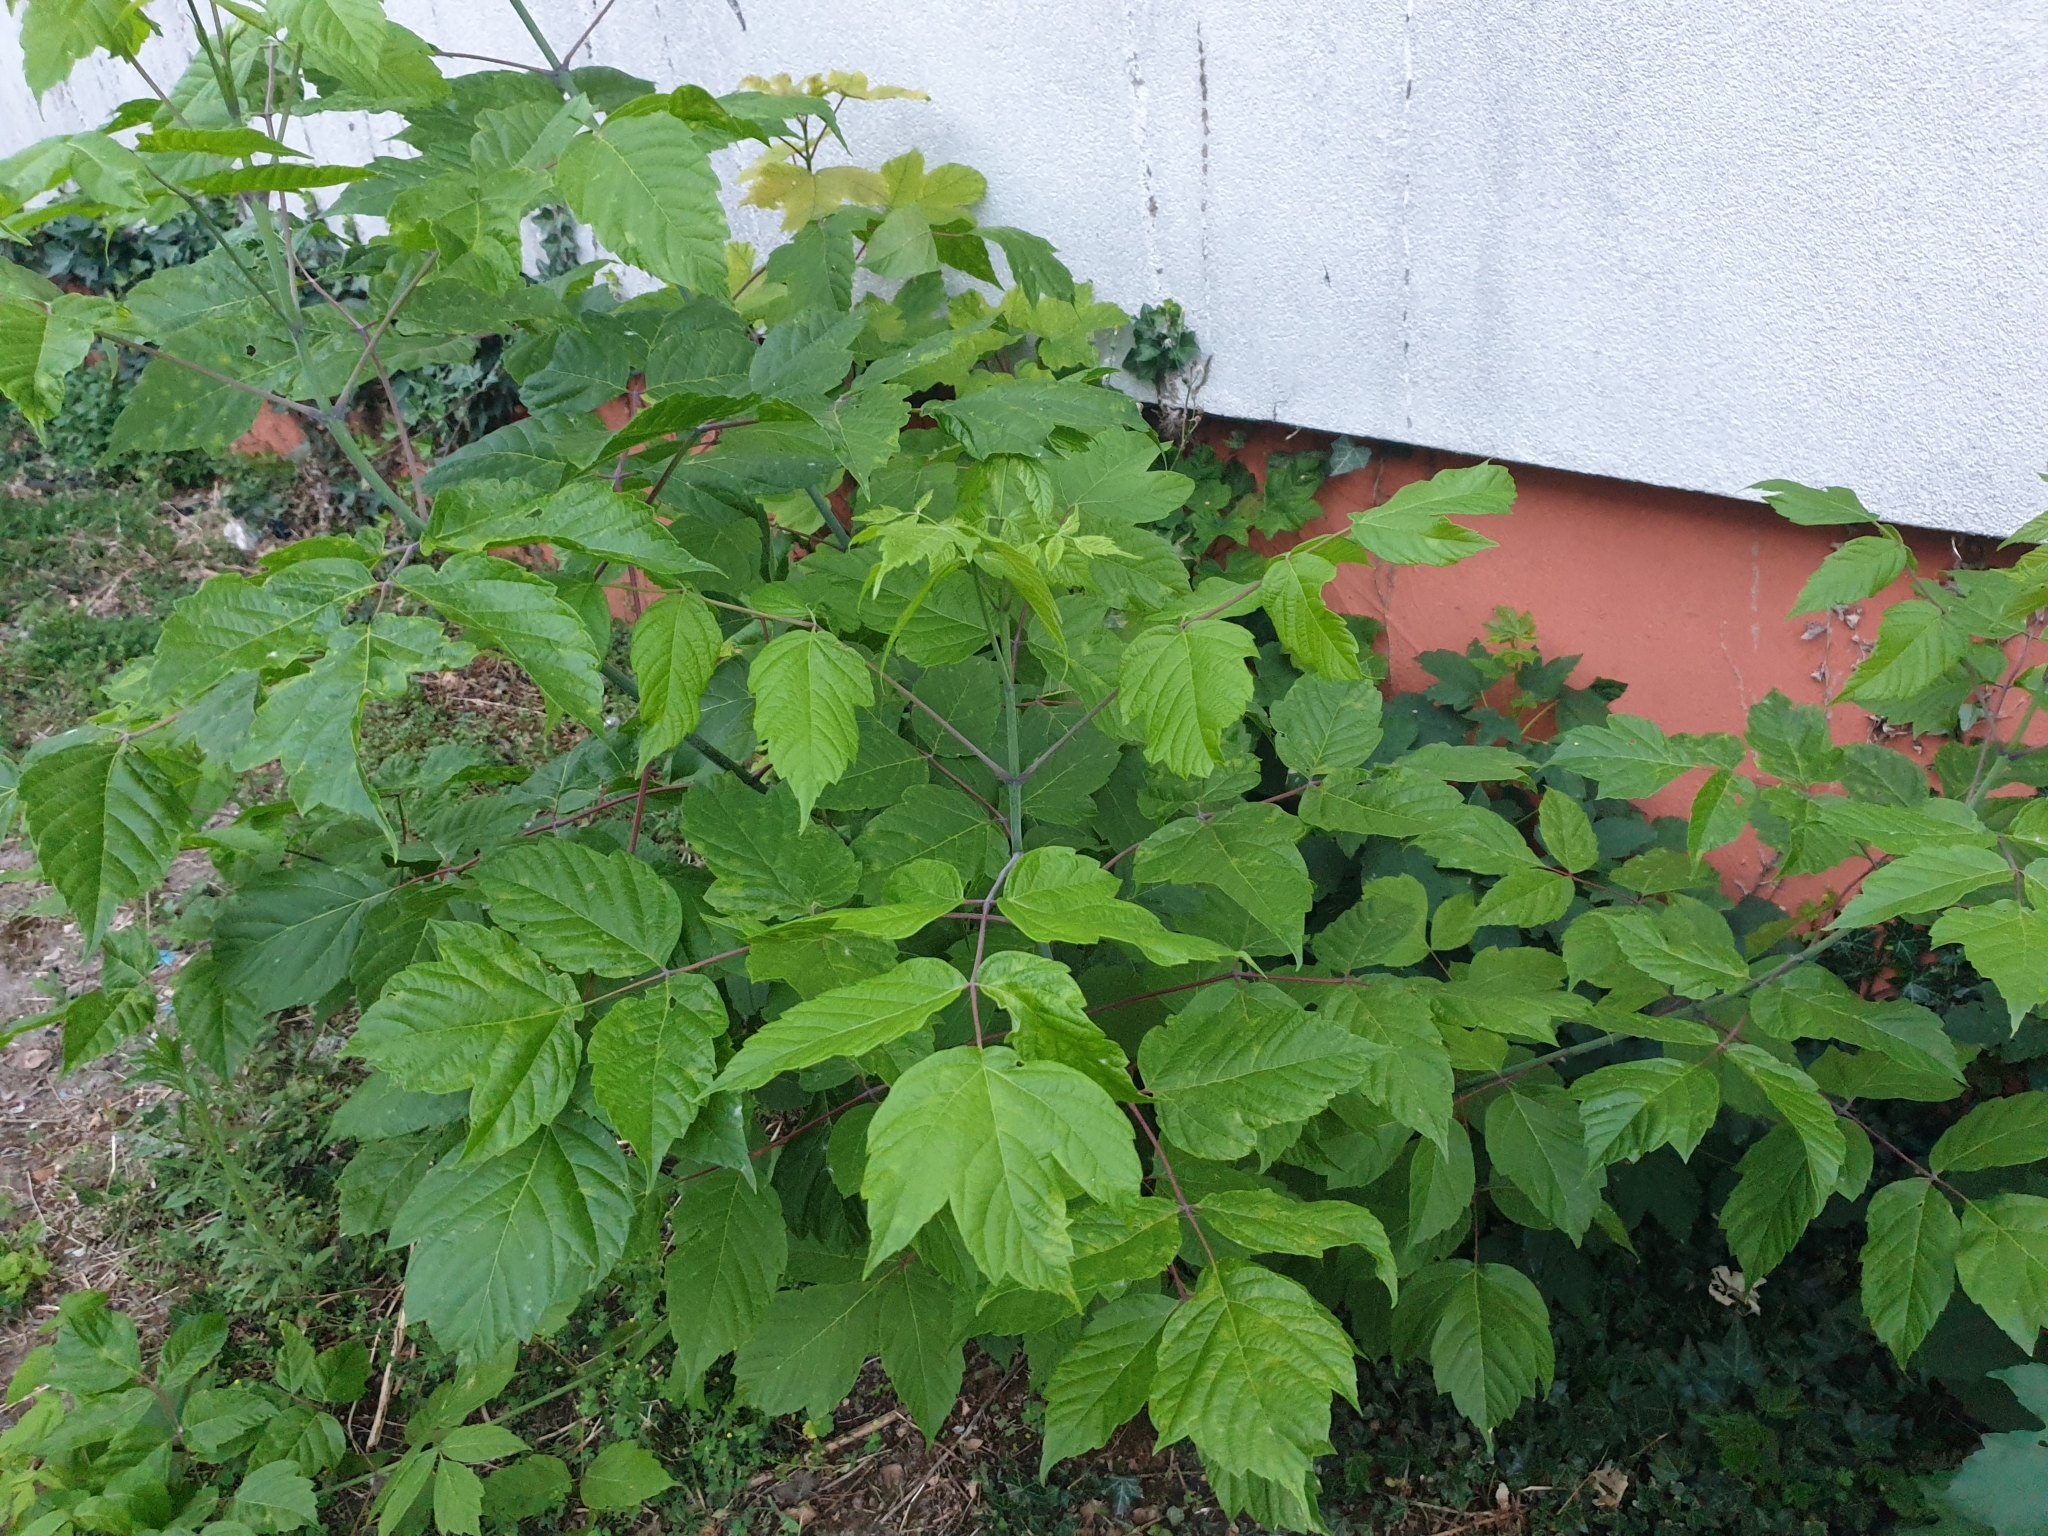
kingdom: Plantae
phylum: Tracheophyta
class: Magnoliopsida
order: Sapindales
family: Sapindaceae
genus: Acer
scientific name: Acer negundo
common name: Ashleaf maple
